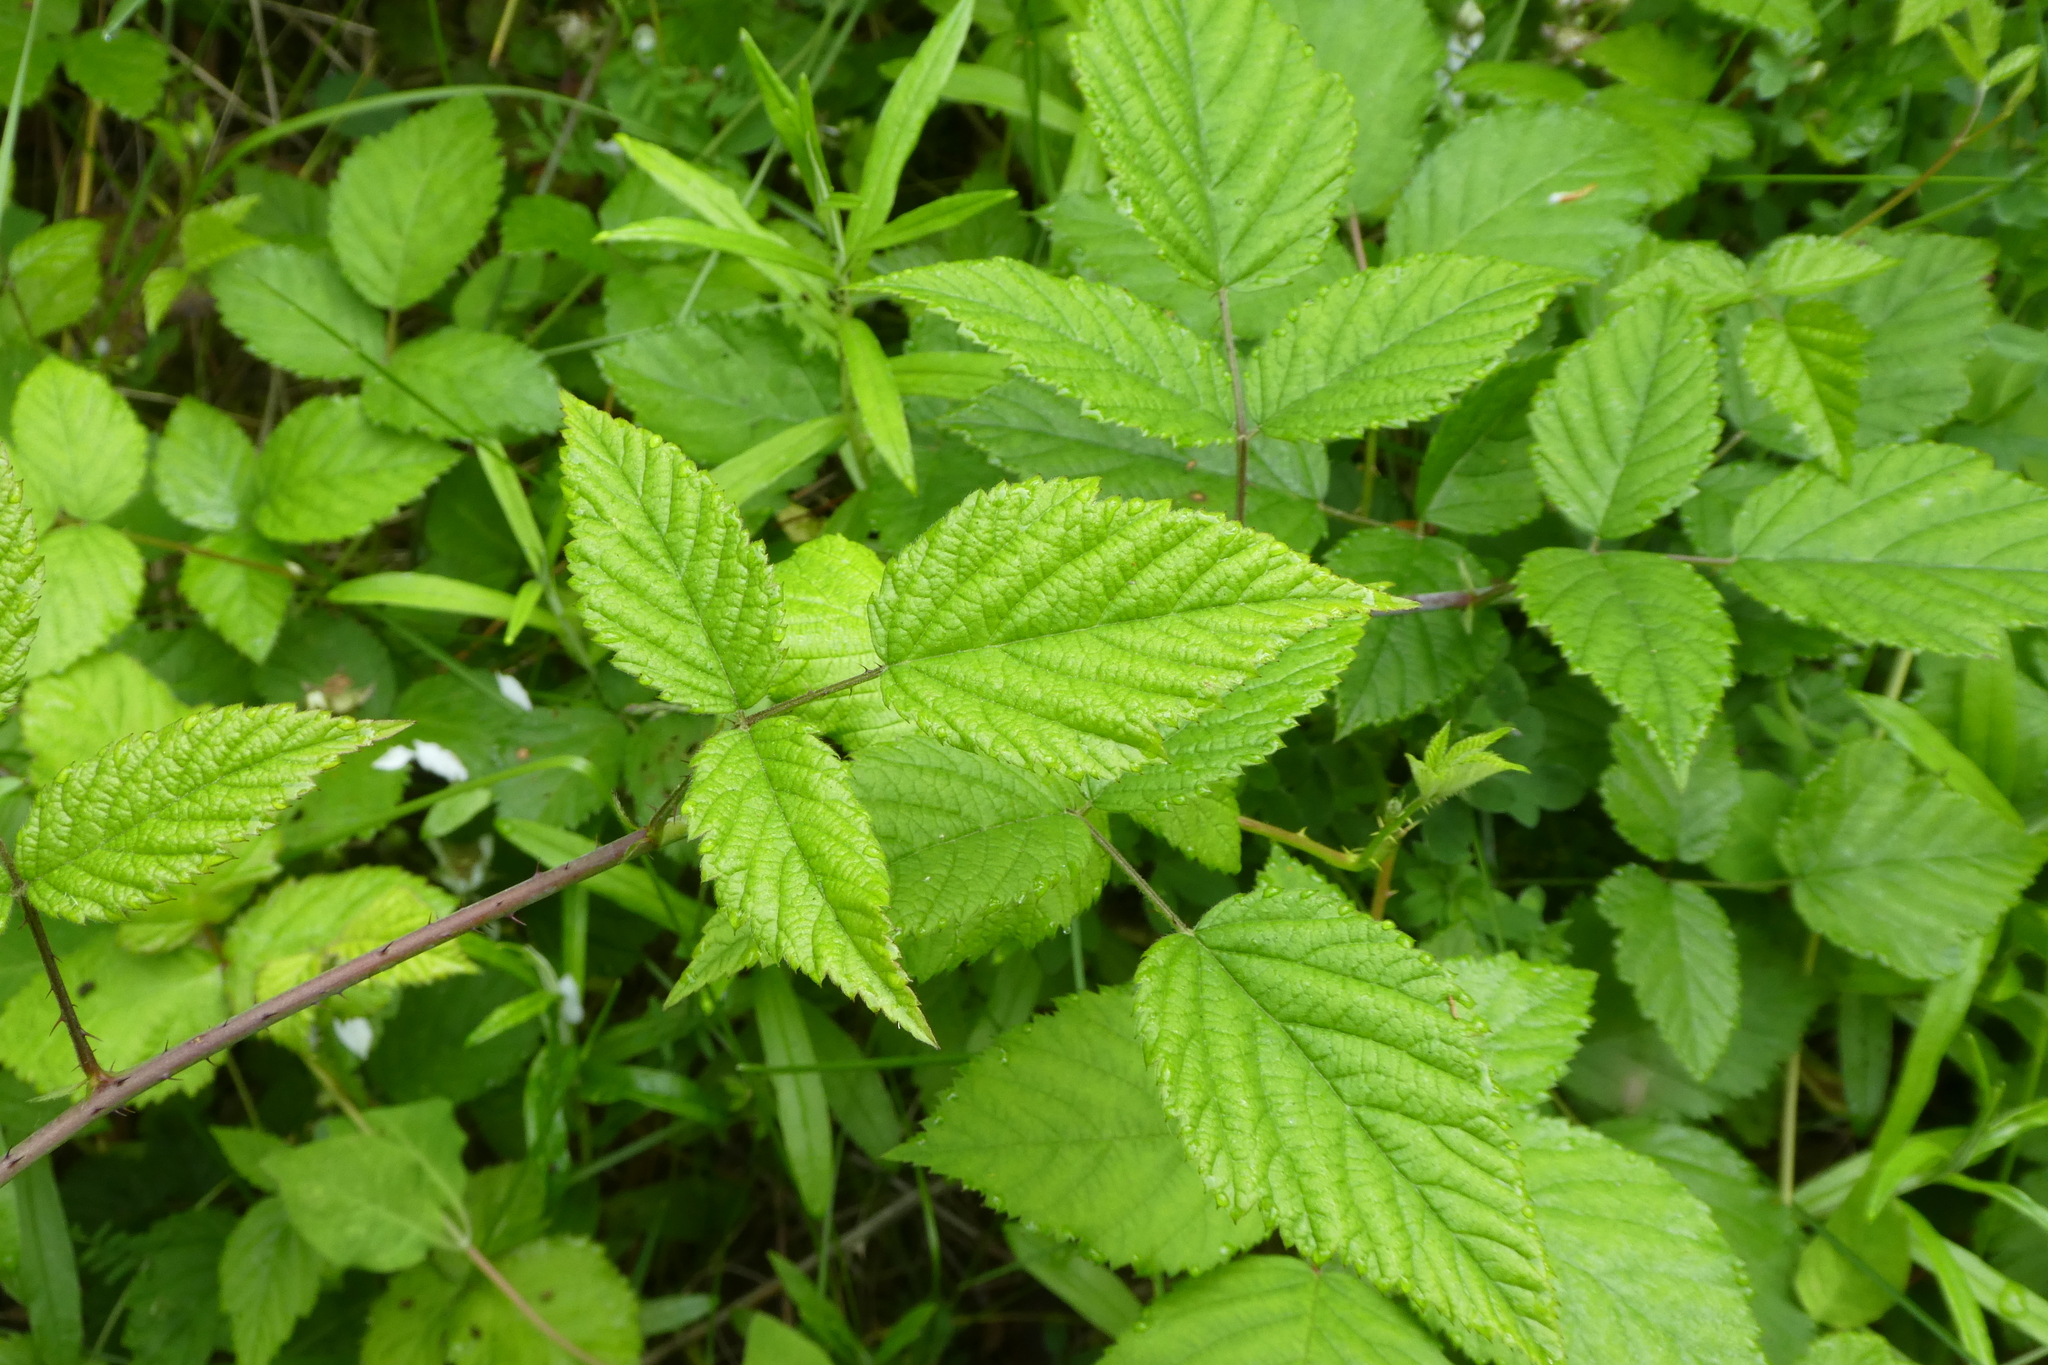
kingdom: Plantae
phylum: Tracheophyta
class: Magnoliopsida
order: Rosales
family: Rosaceae
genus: Rubus
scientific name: Rubus ursinus
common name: Pacific blackberry
